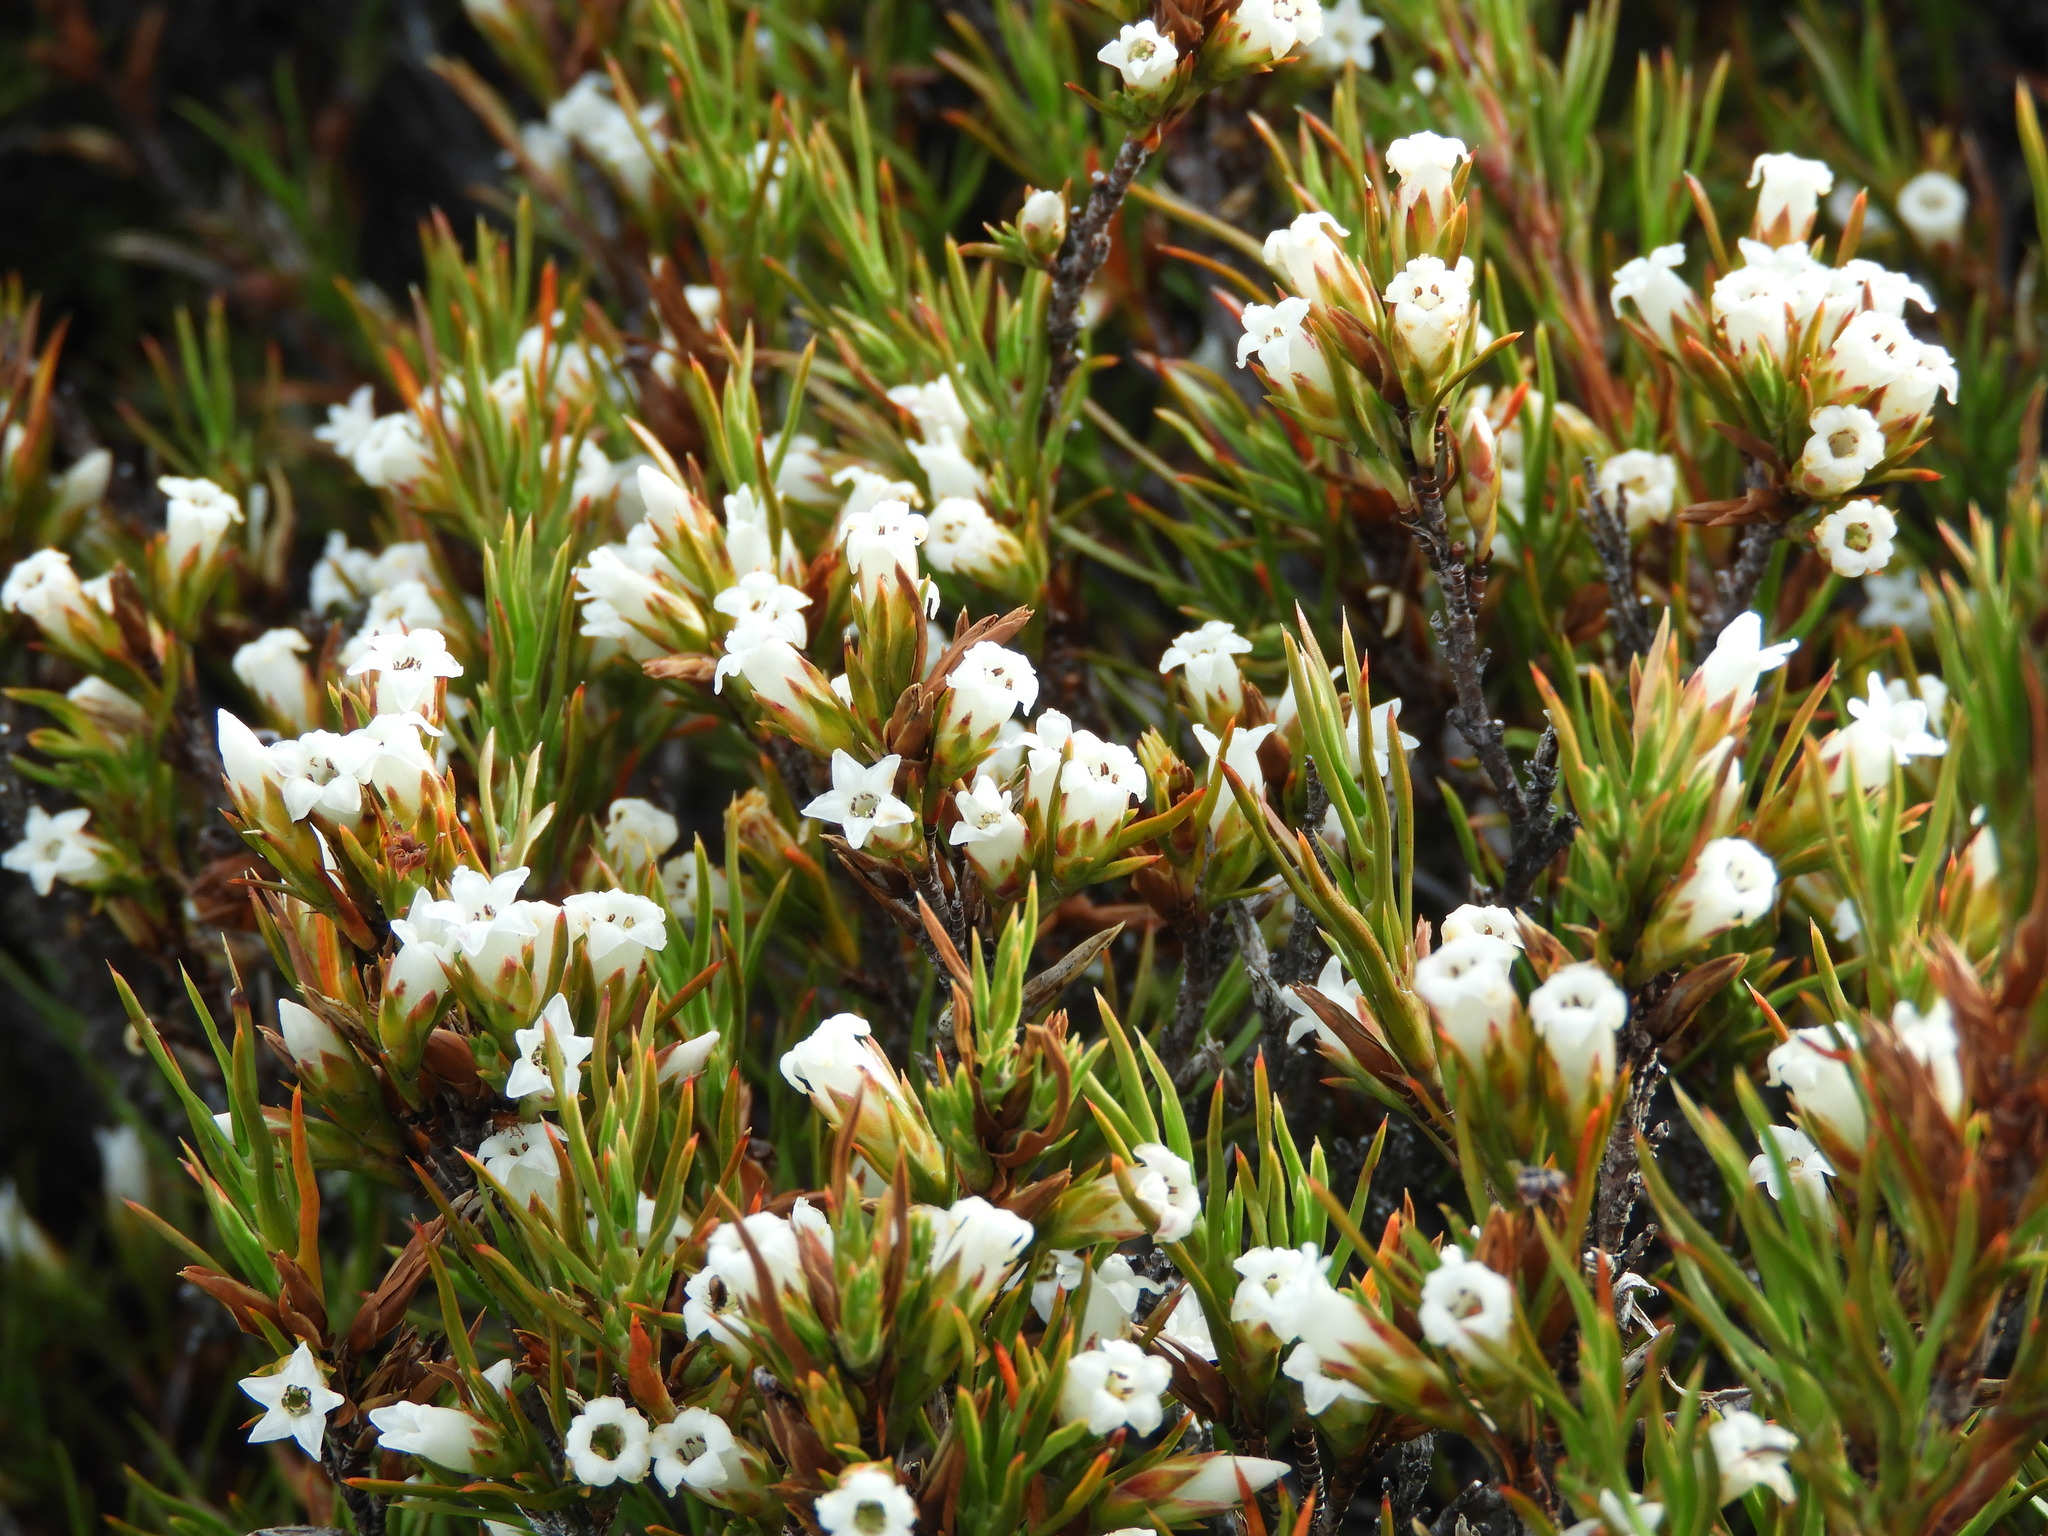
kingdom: Plantae
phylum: Tracheophyta
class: Magnoliopsida
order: Ericales
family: Ericaceae
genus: Dracophyllum
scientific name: Dracophyllum rosmarinifolium
